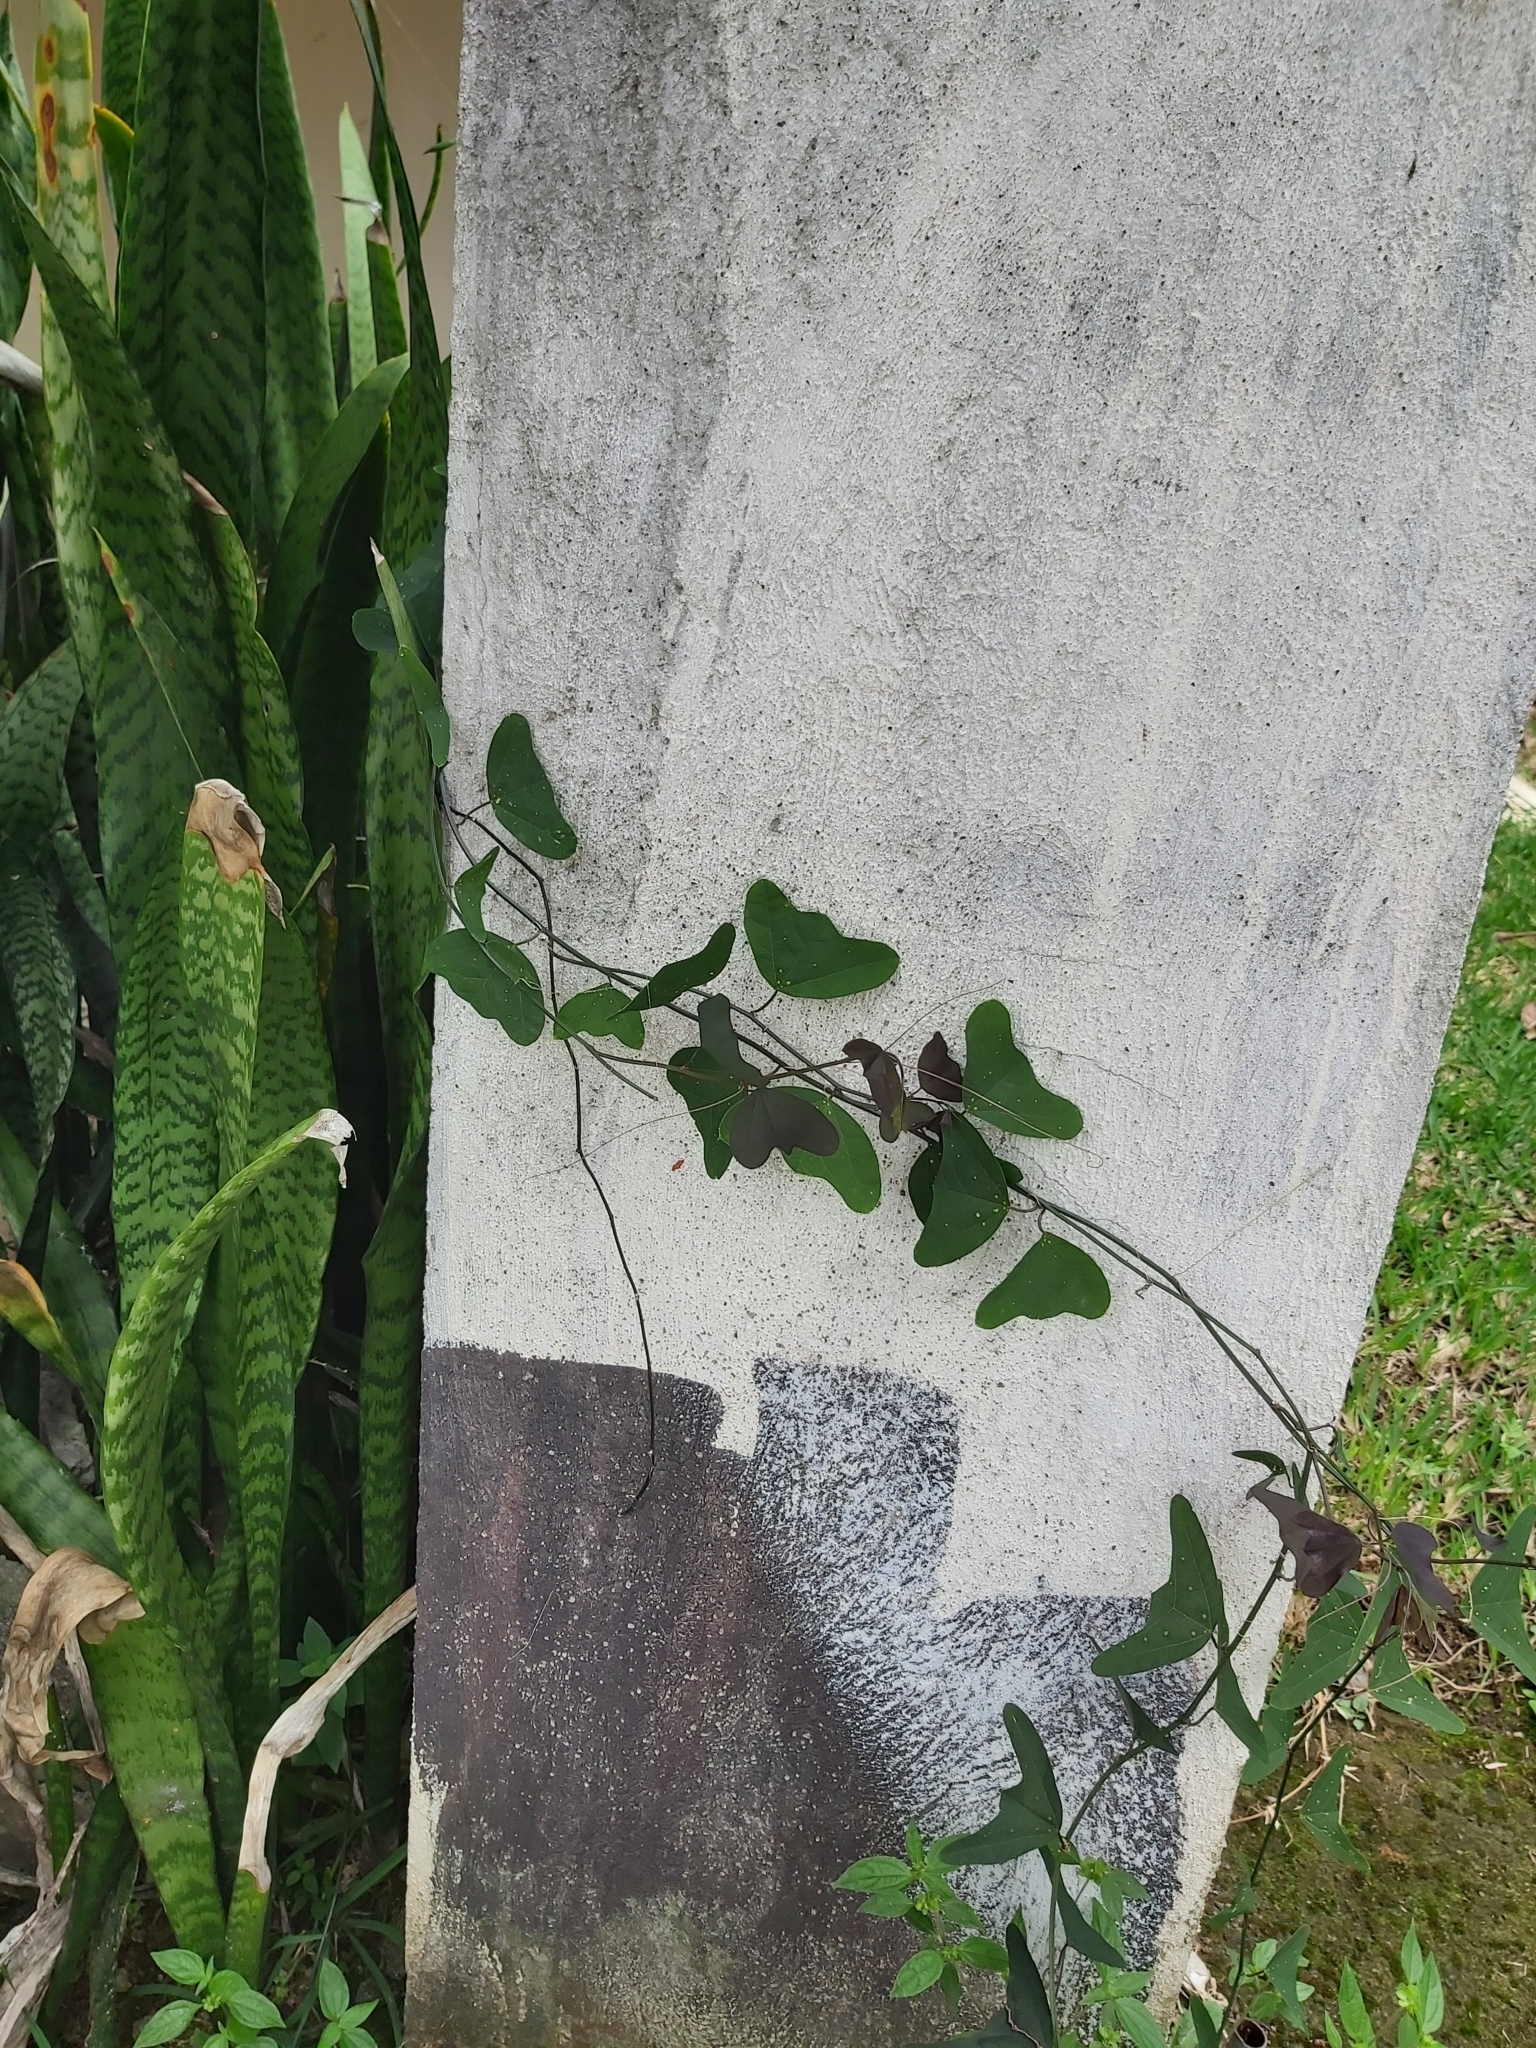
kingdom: Plantae
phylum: Tracheophyta
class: Magnoliopsida
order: Malpighiales
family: Passifloraceae
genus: Passiflora
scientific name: Passiflora biflora
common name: Twoflower passionflower
